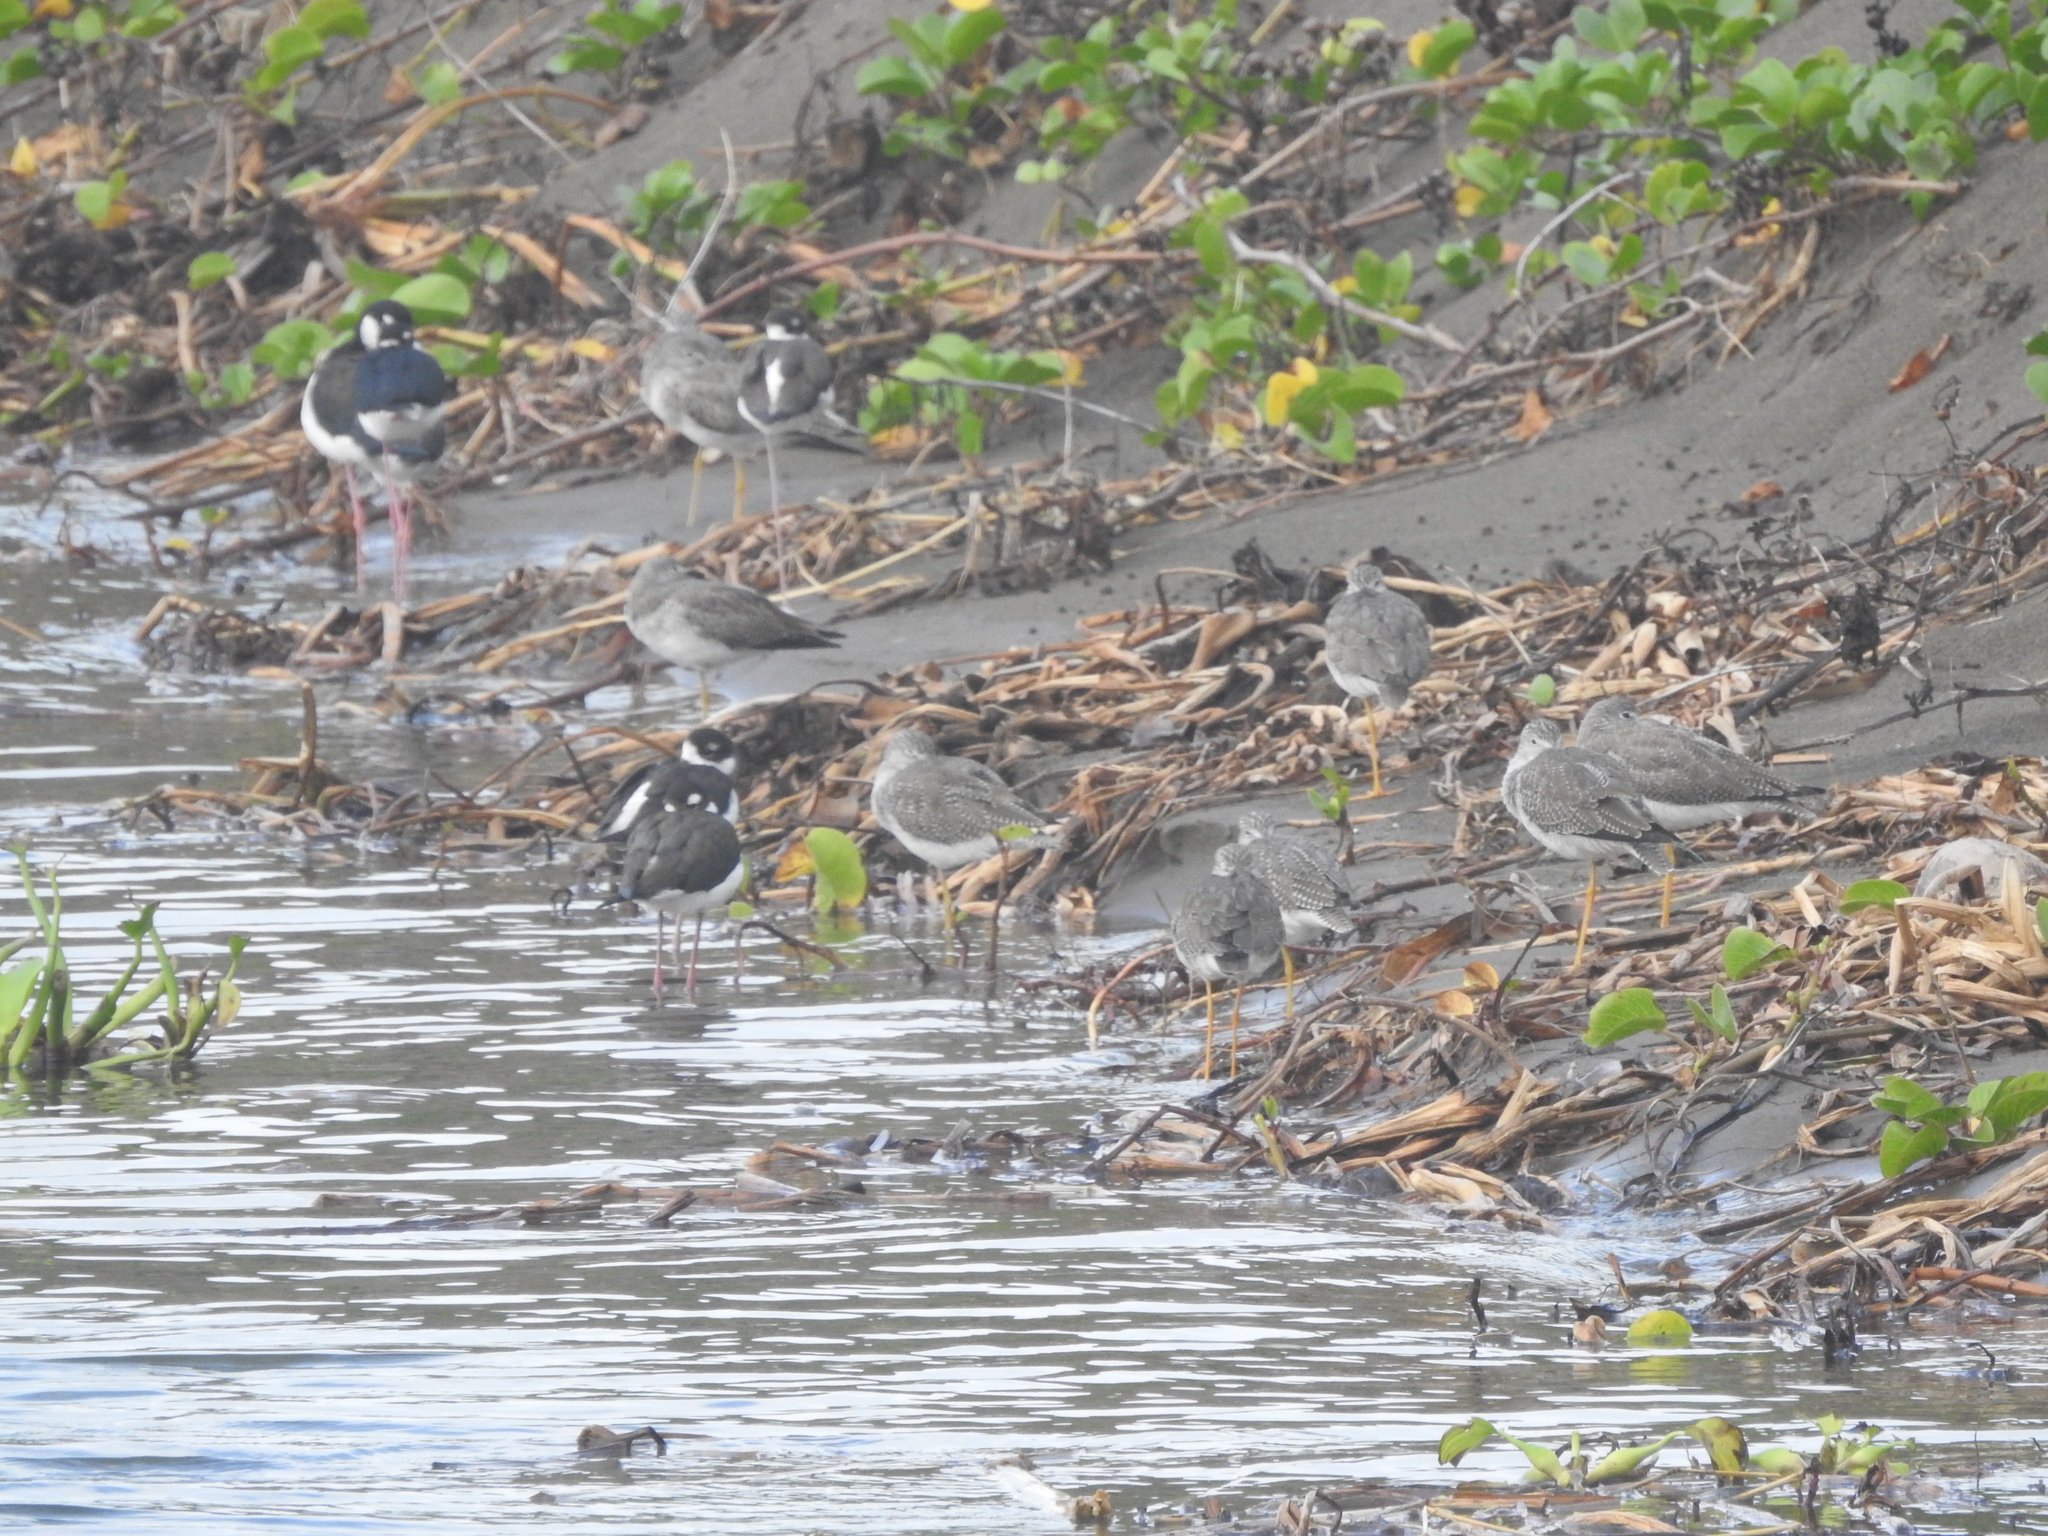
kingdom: Animalia
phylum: Chordata
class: Aves
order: Charadriiformes
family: Scolopacidae
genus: Tringa
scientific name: Tringa melanoleuca
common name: Greater yellowlegs
